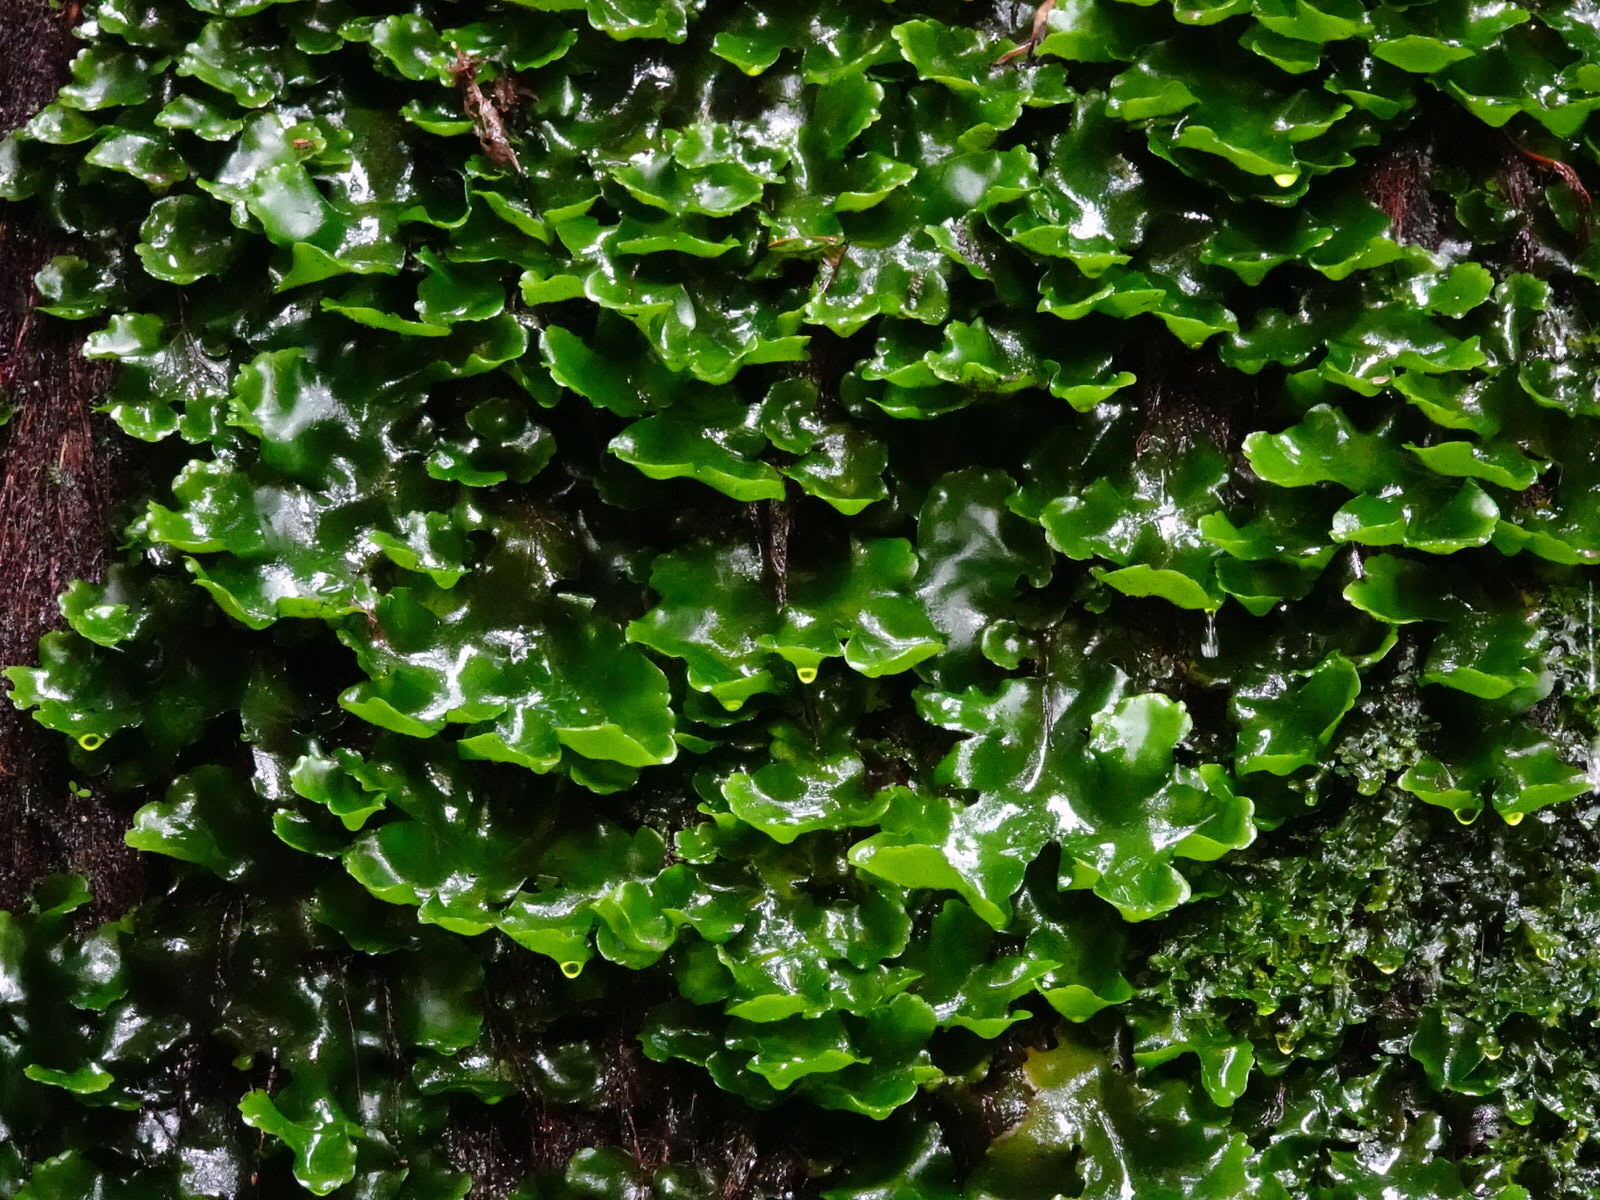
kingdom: Plantae
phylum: Marchantiophyta
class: Marchantiopsida
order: Marchantiales
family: Monocleaceae
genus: Monoclea
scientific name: Monoclea forsteri
